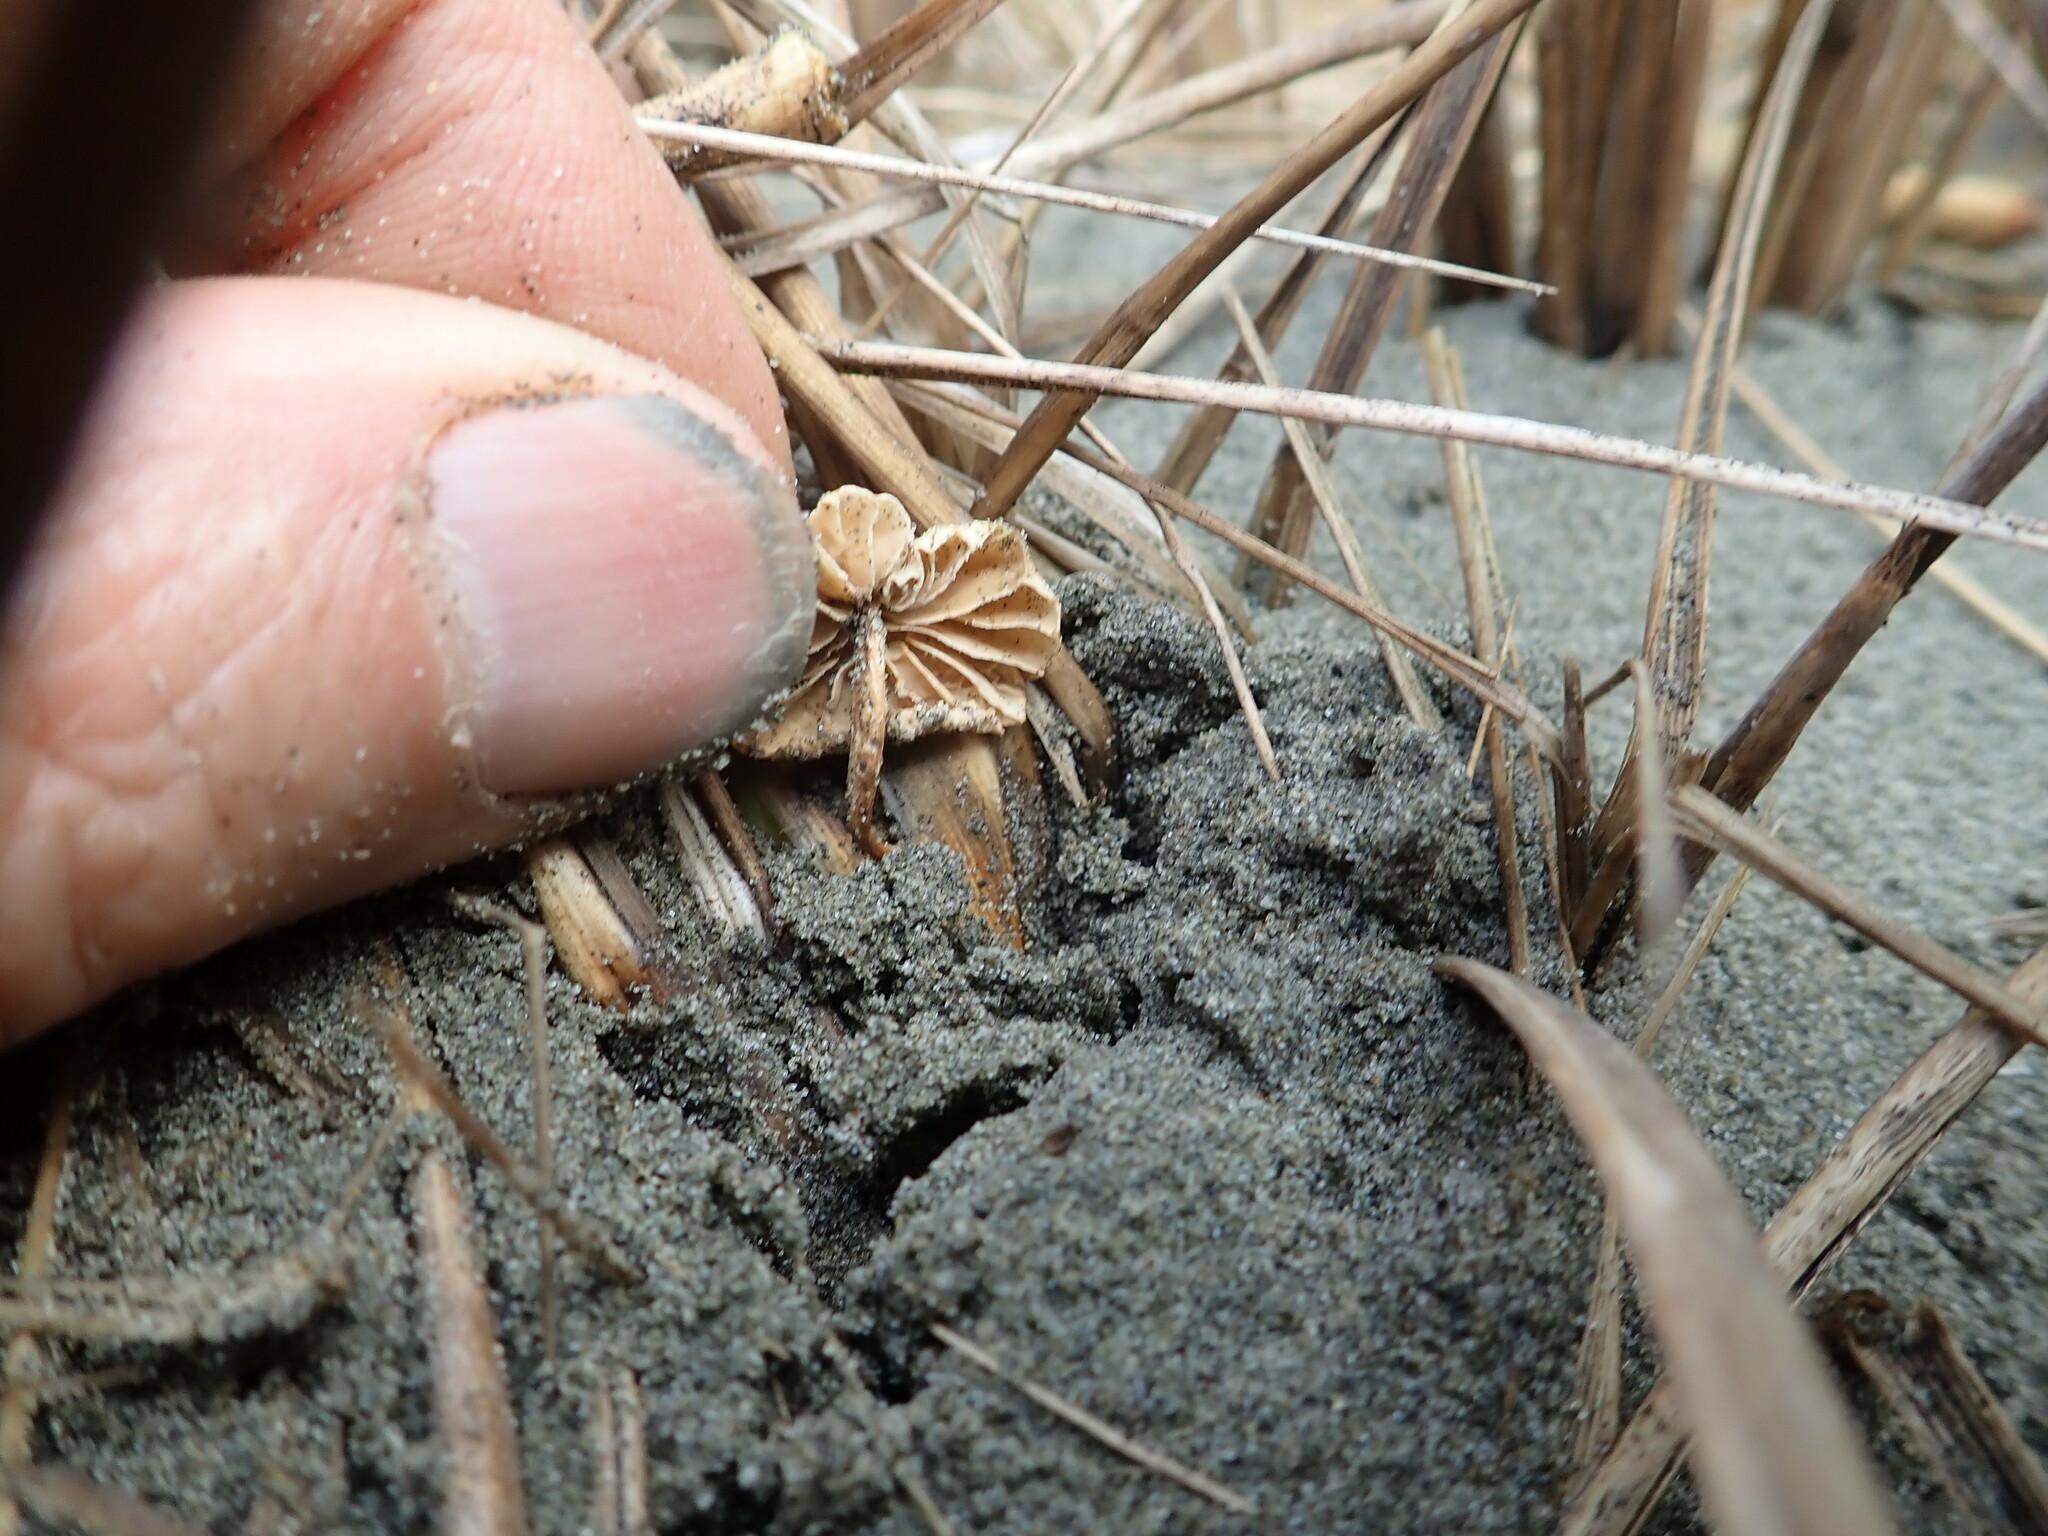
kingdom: Fungi
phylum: Basidiomycota
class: Agaricomycetes
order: Agaricales
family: Marasmiaceae
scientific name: Marasmiaceae
